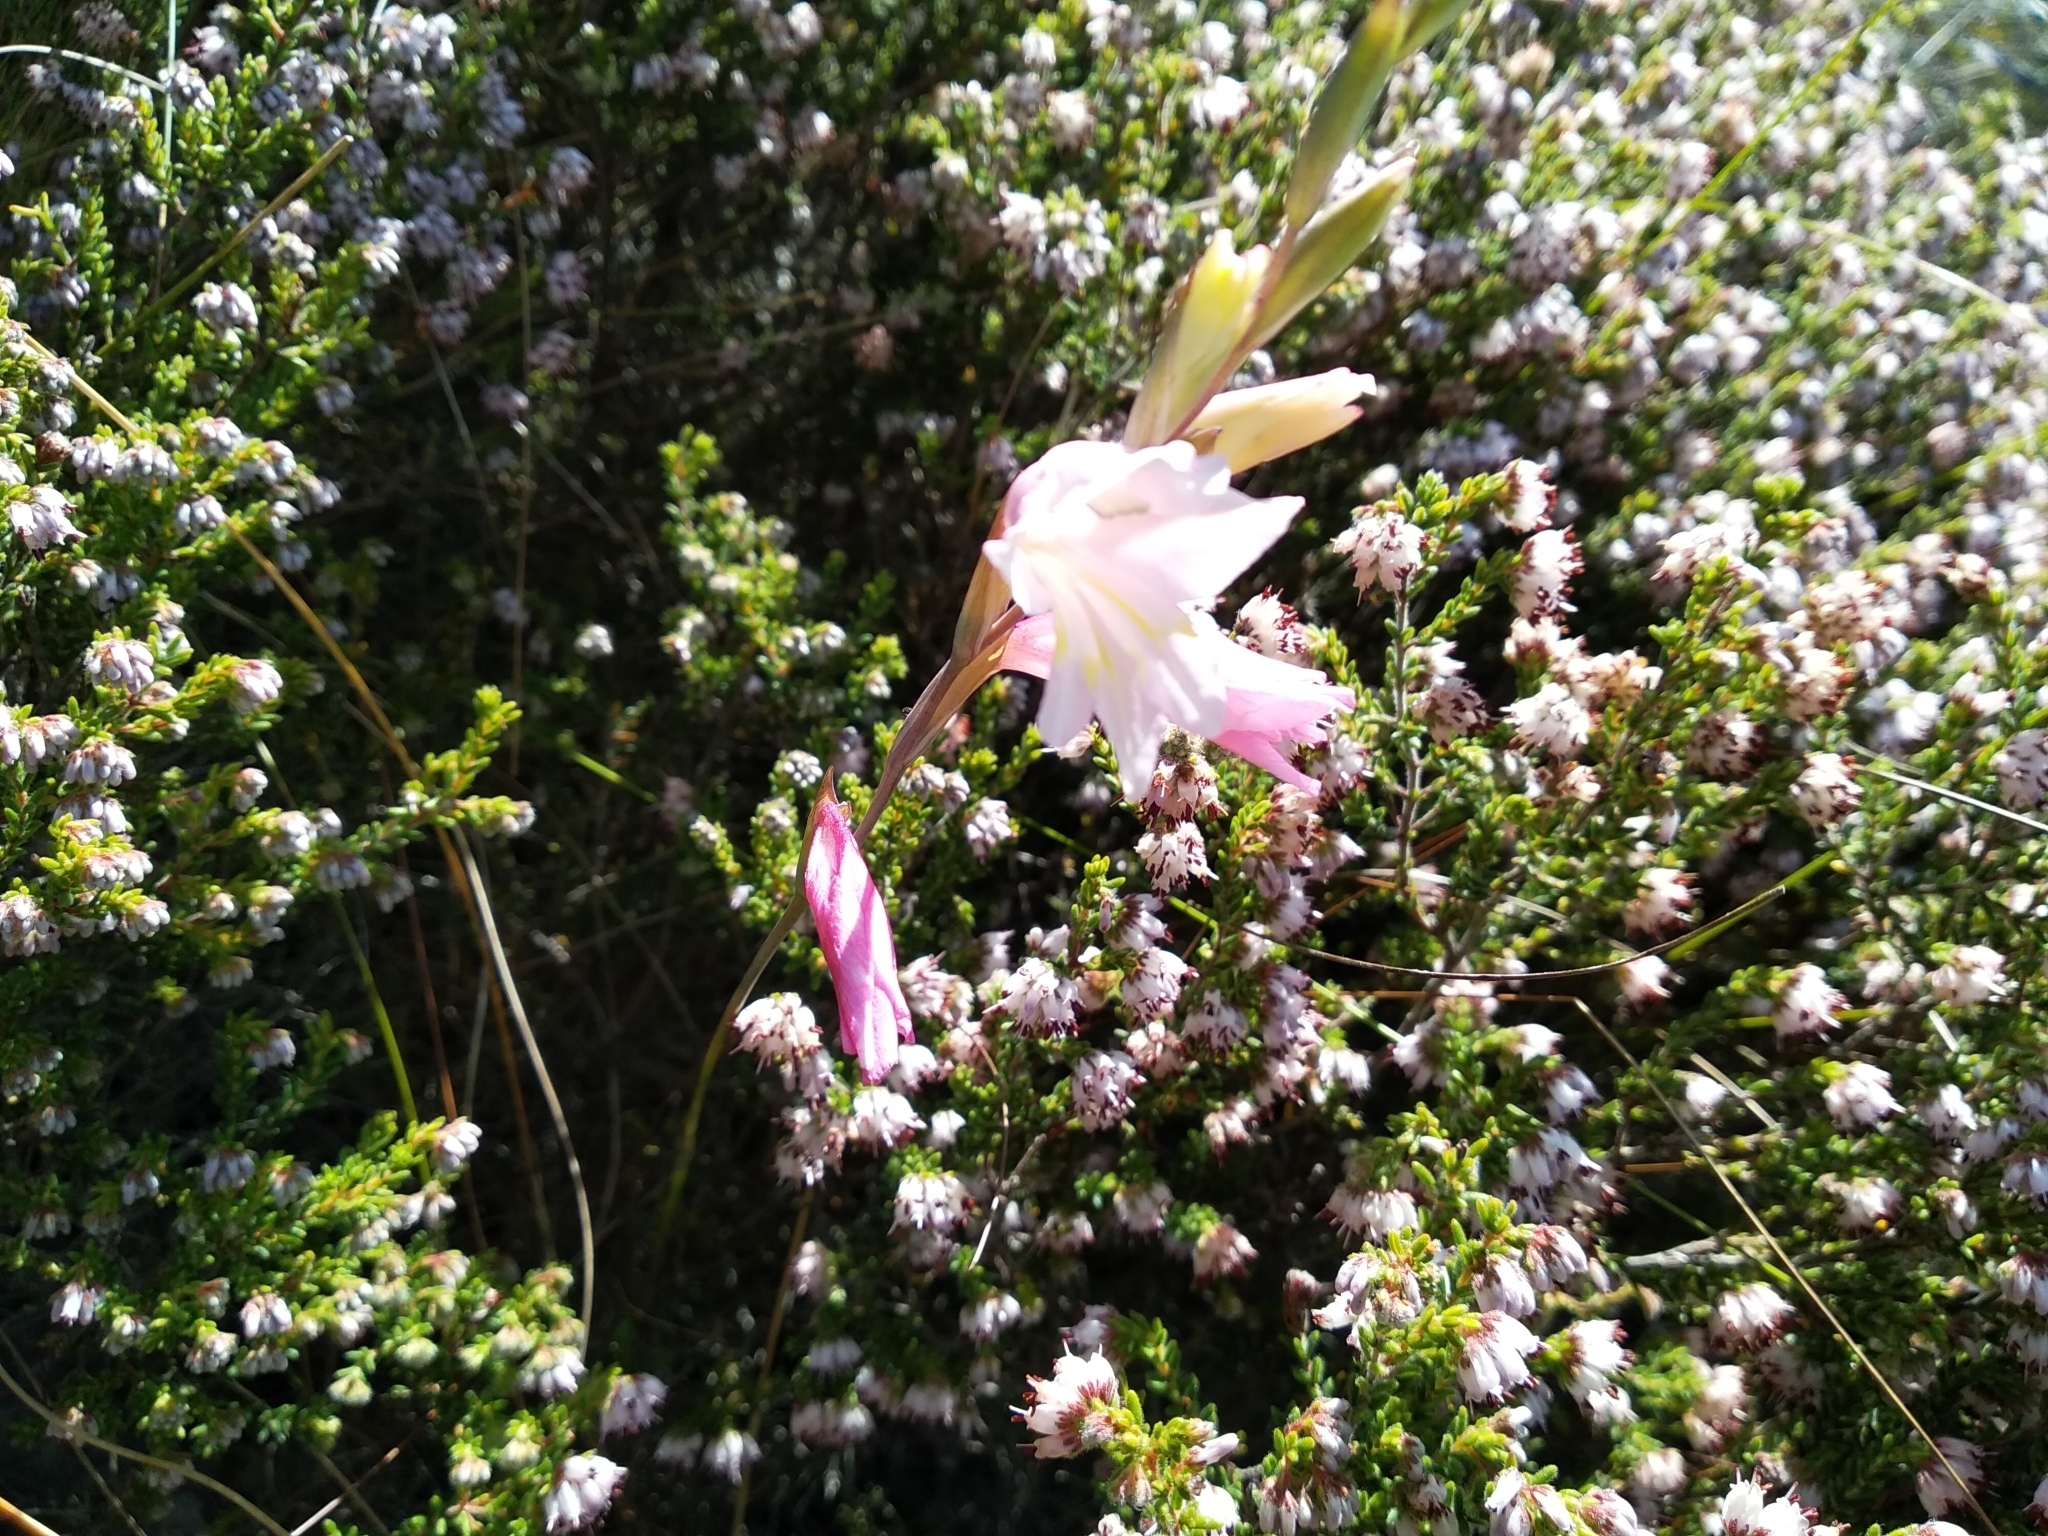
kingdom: Plantae
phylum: Tracheophyta
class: Liliopsida
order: Asparagales
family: Iridaceae
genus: Gladiolus
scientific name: Gladiolus brevifolius
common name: March pypie
